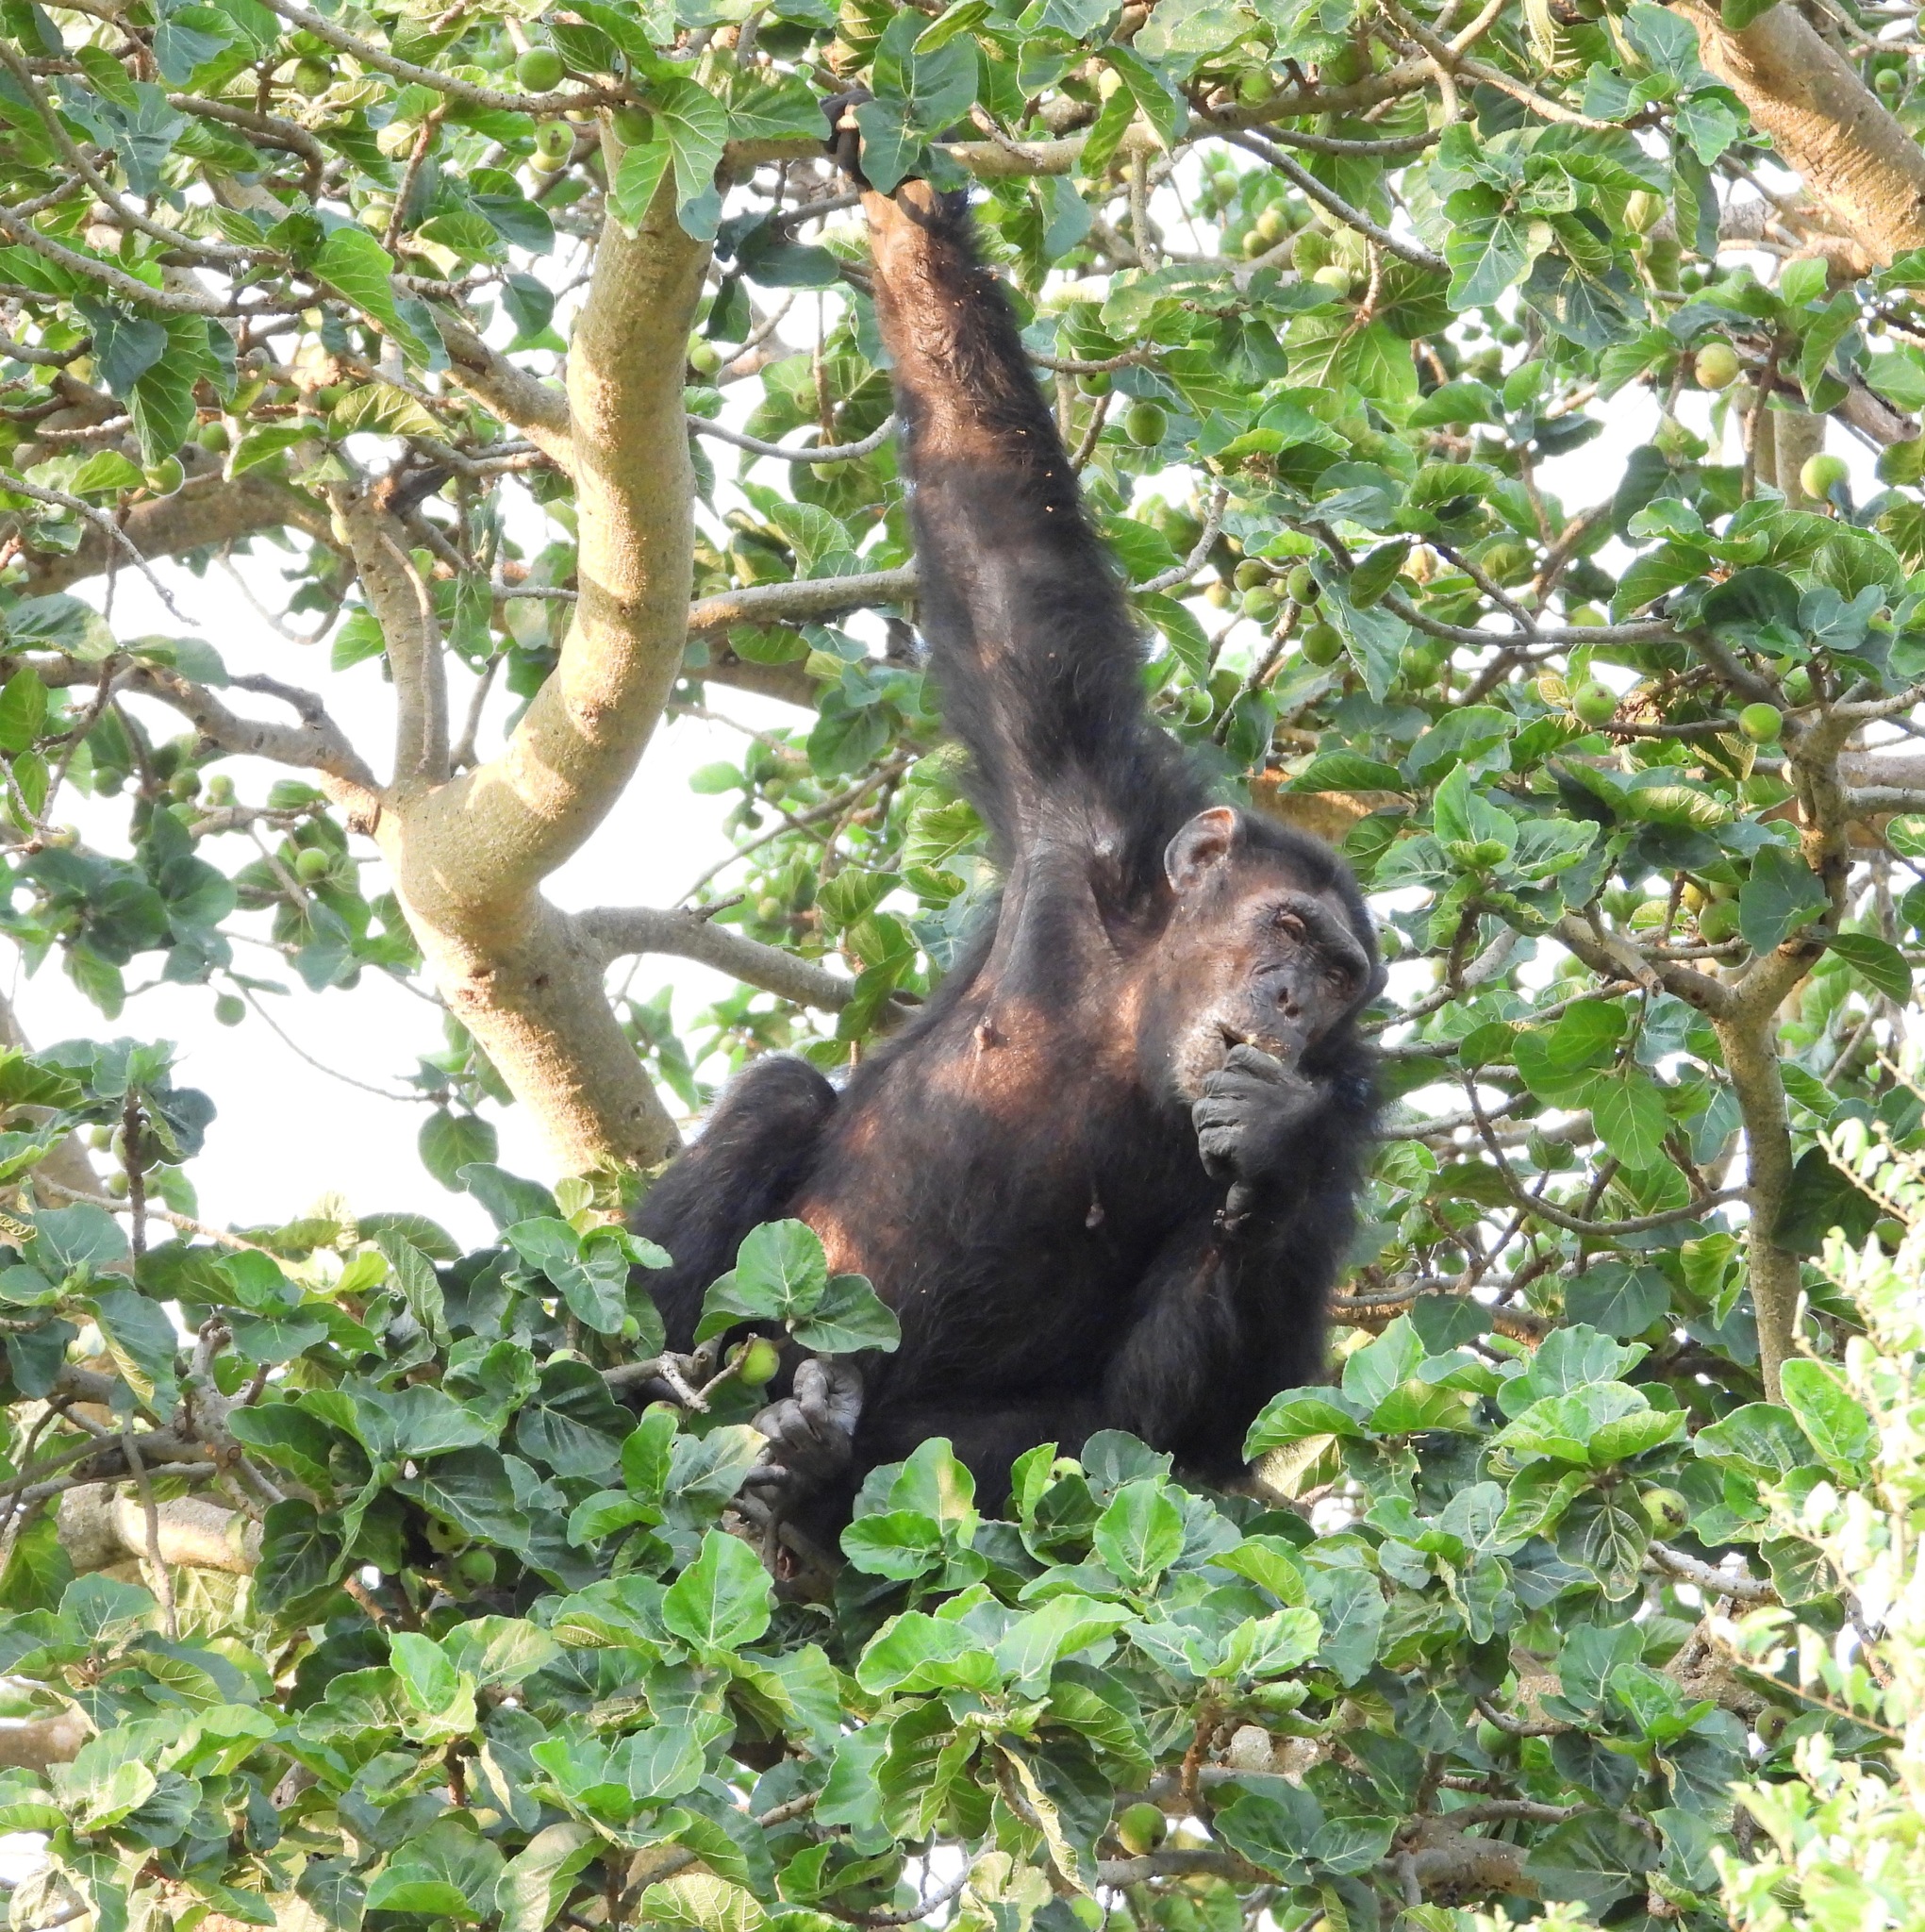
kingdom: Animalia
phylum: Chordata
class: Mammalia
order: Primates
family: Hominidae
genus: Pan
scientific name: Pan troglodytes
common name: Chimpanzee
